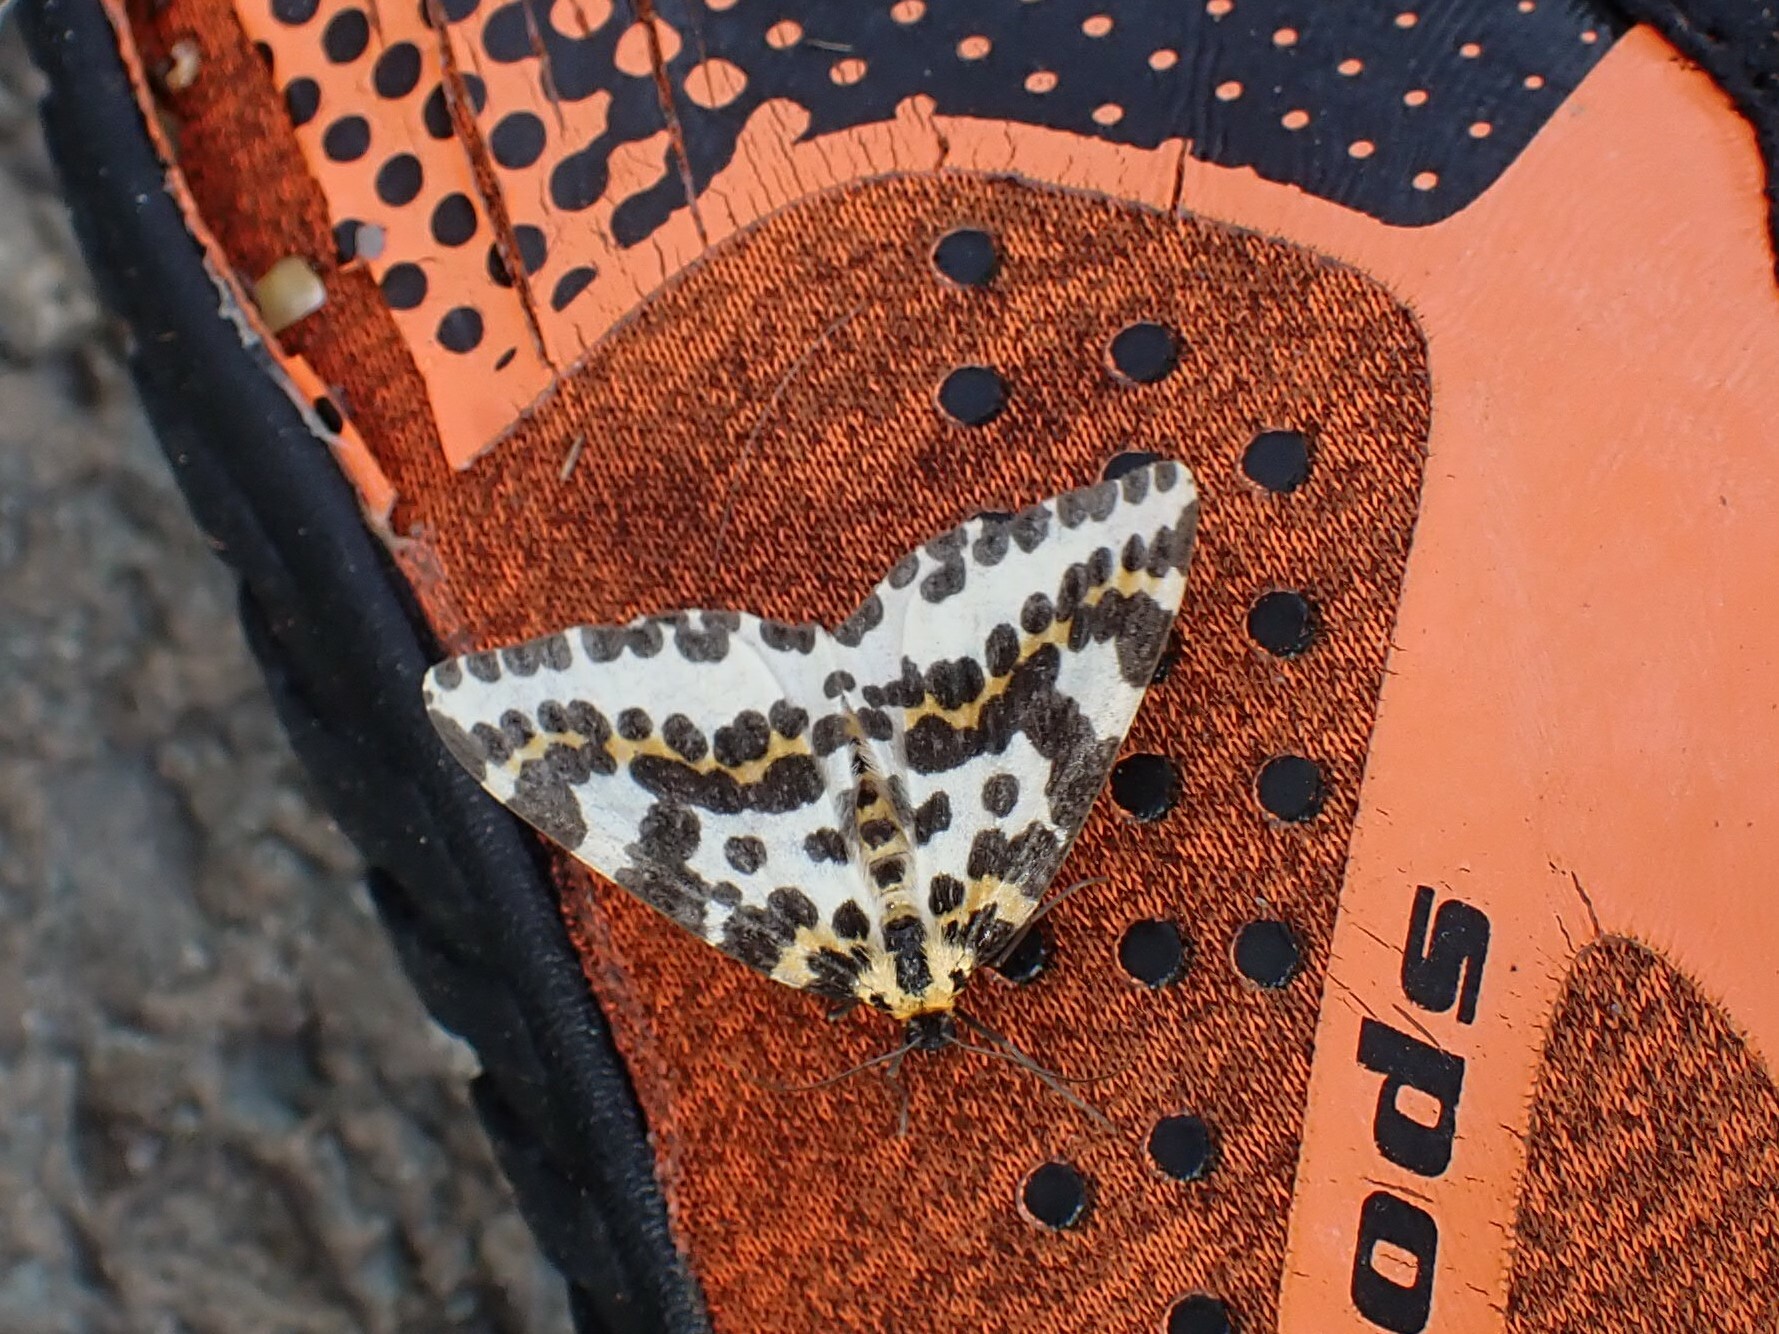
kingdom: Animalia
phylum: Arthropoda
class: Insecta
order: Lepidoptera
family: Geometridae
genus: Abraxas
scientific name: Abraxas grossulariata
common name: Magpie
